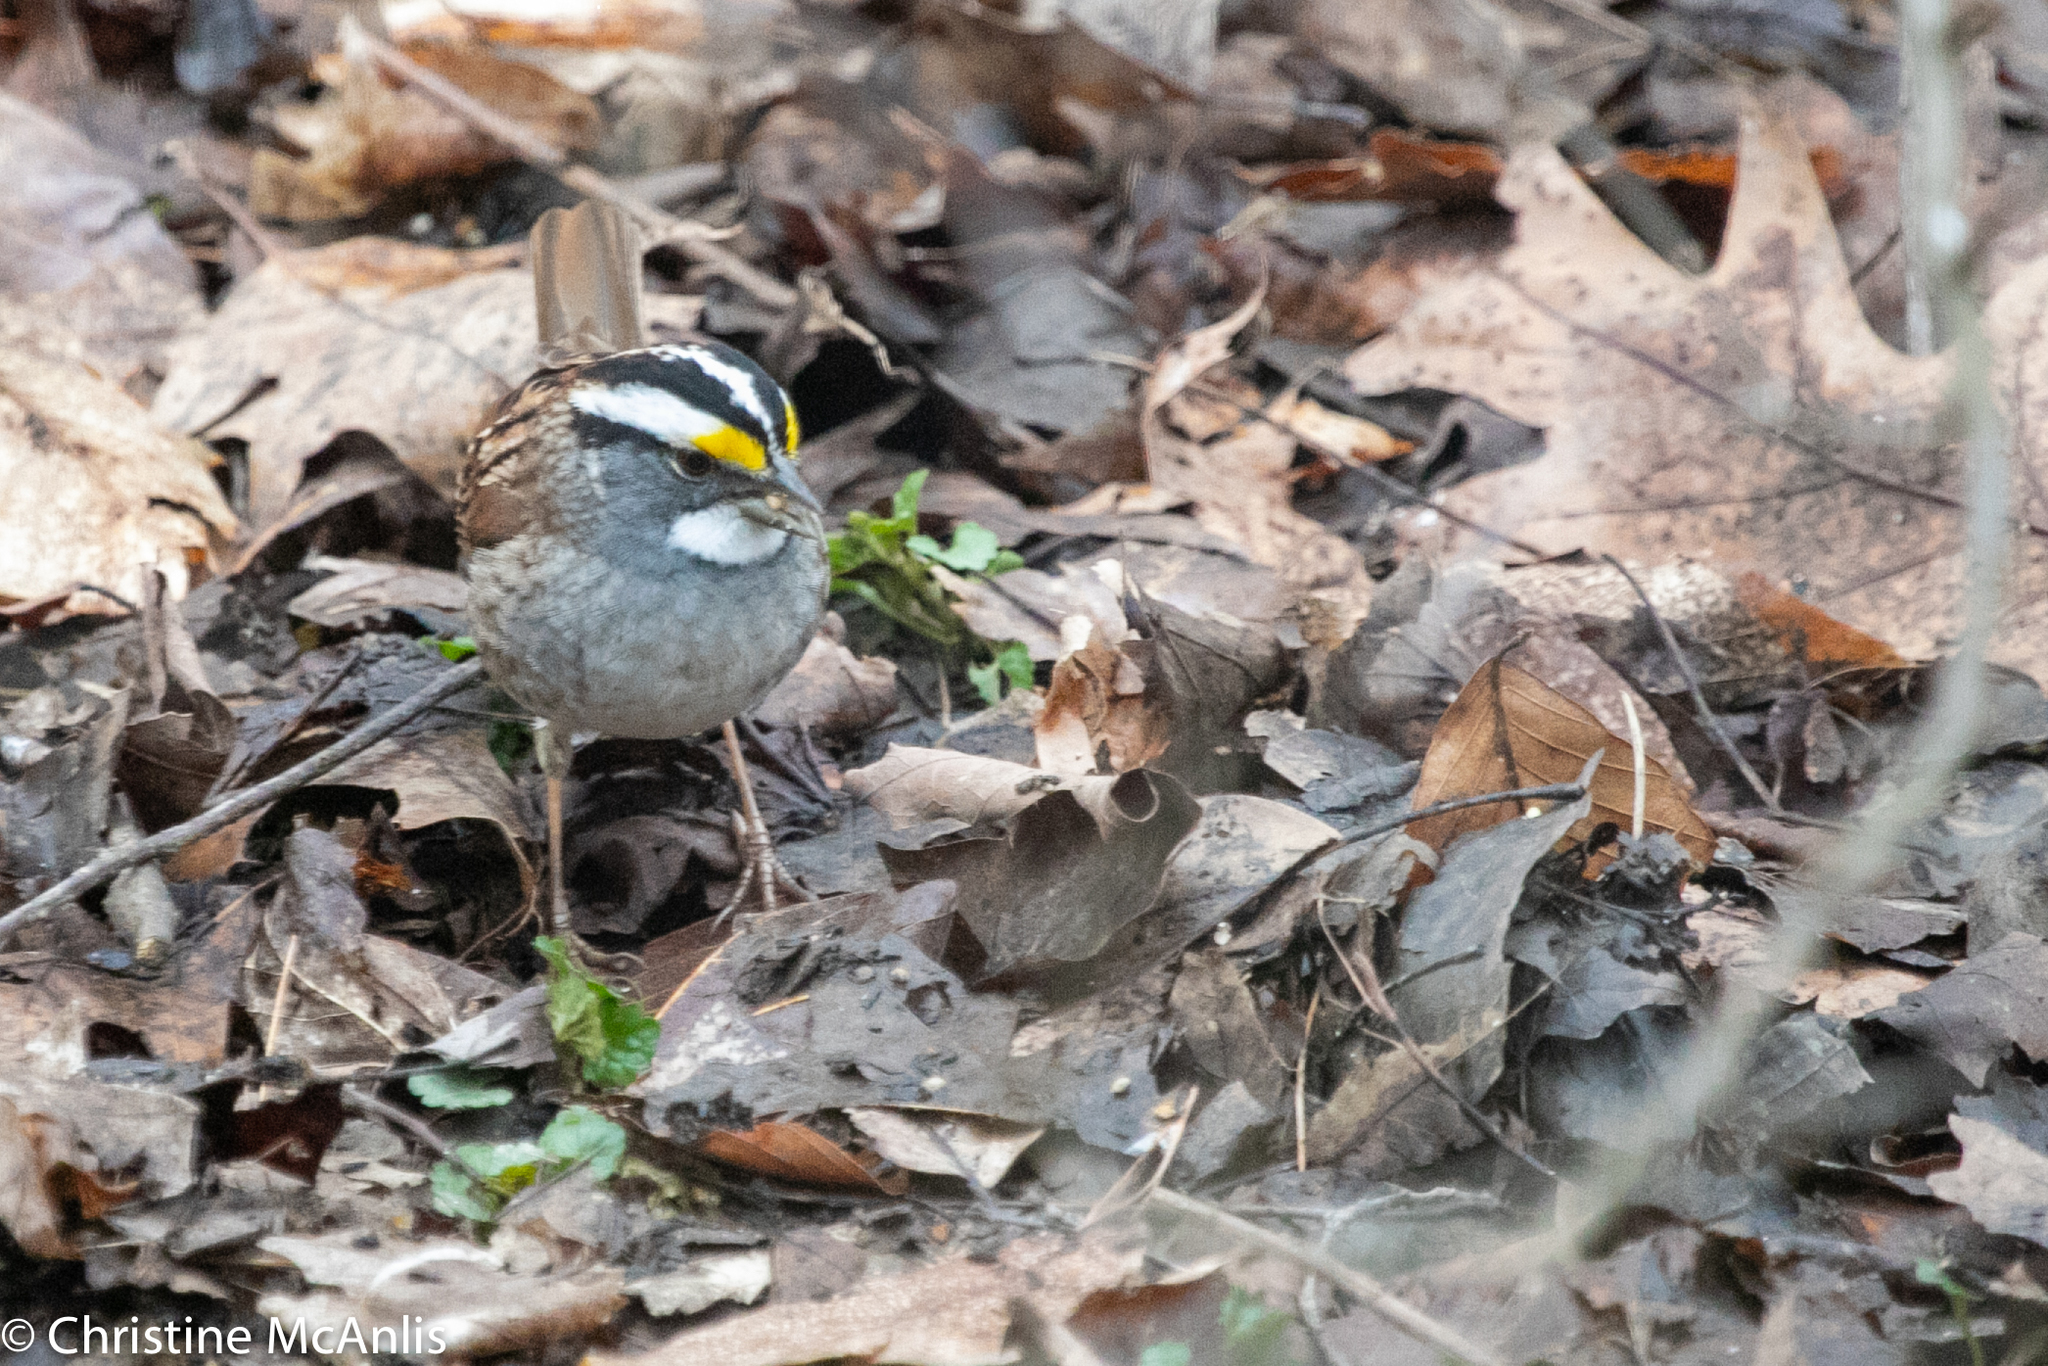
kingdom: Animalia
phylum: Chordata
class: Aves
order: Passeriformes
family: Passerellidae
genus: Zonotrichia
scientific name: Zonotrichia albicollis
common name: White-throated sparrow
